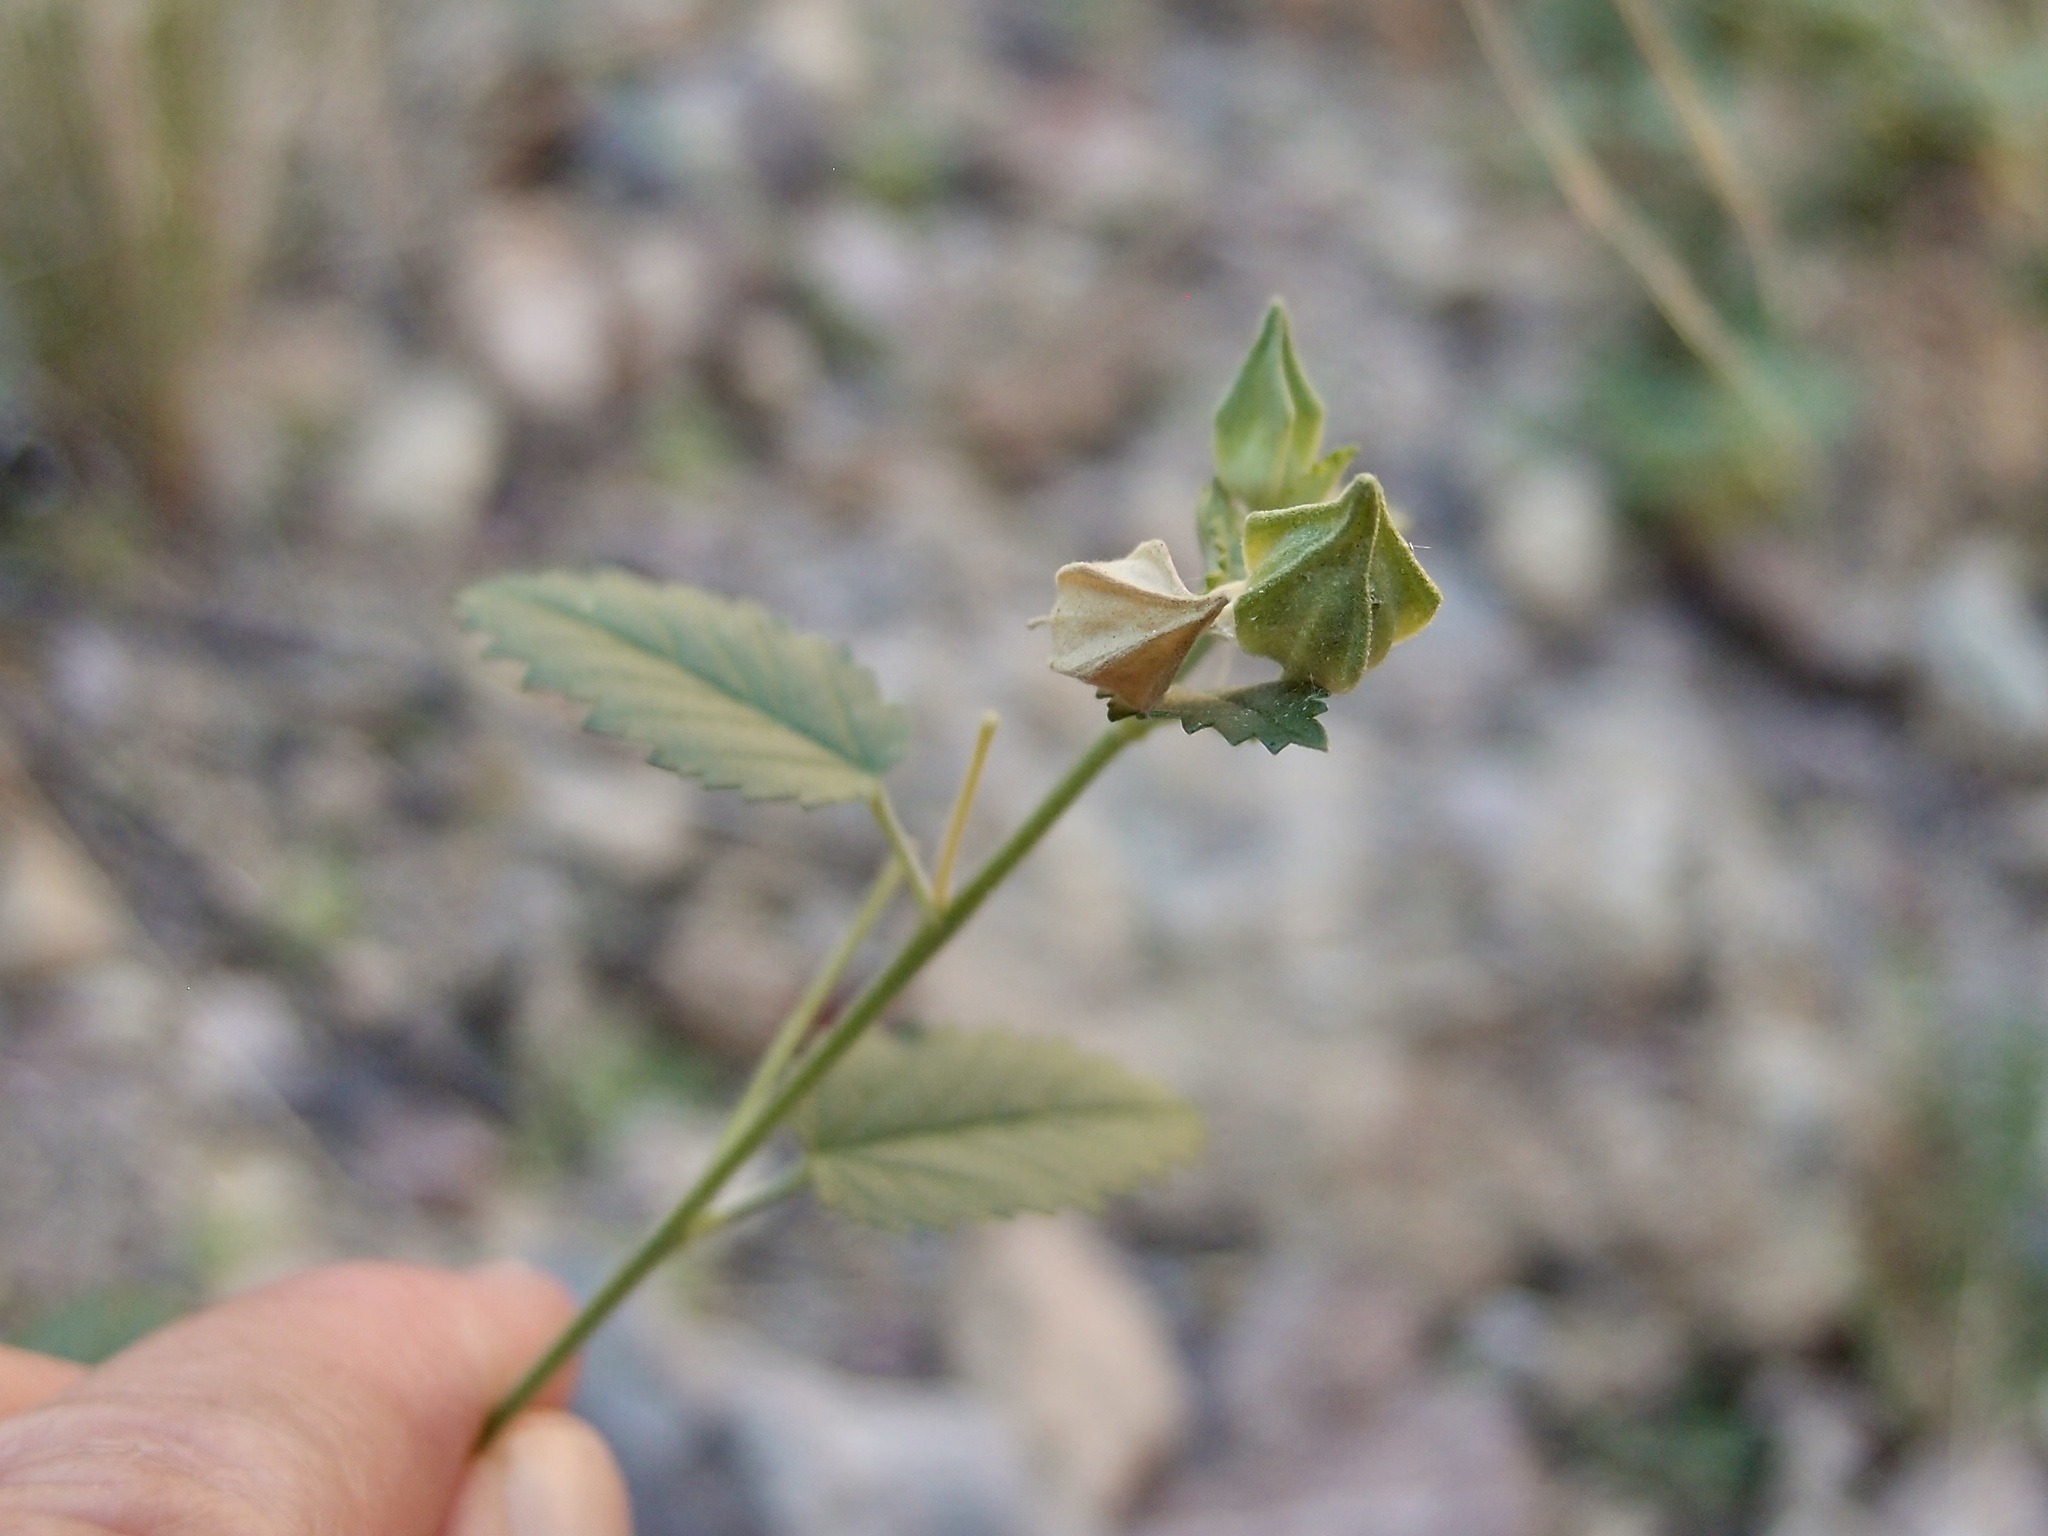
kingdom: Plantae
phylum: Tracheophyta
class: Magnoliopsida
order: Malvales
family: Malvaceae
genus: Sida
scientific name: Sida hyalina
